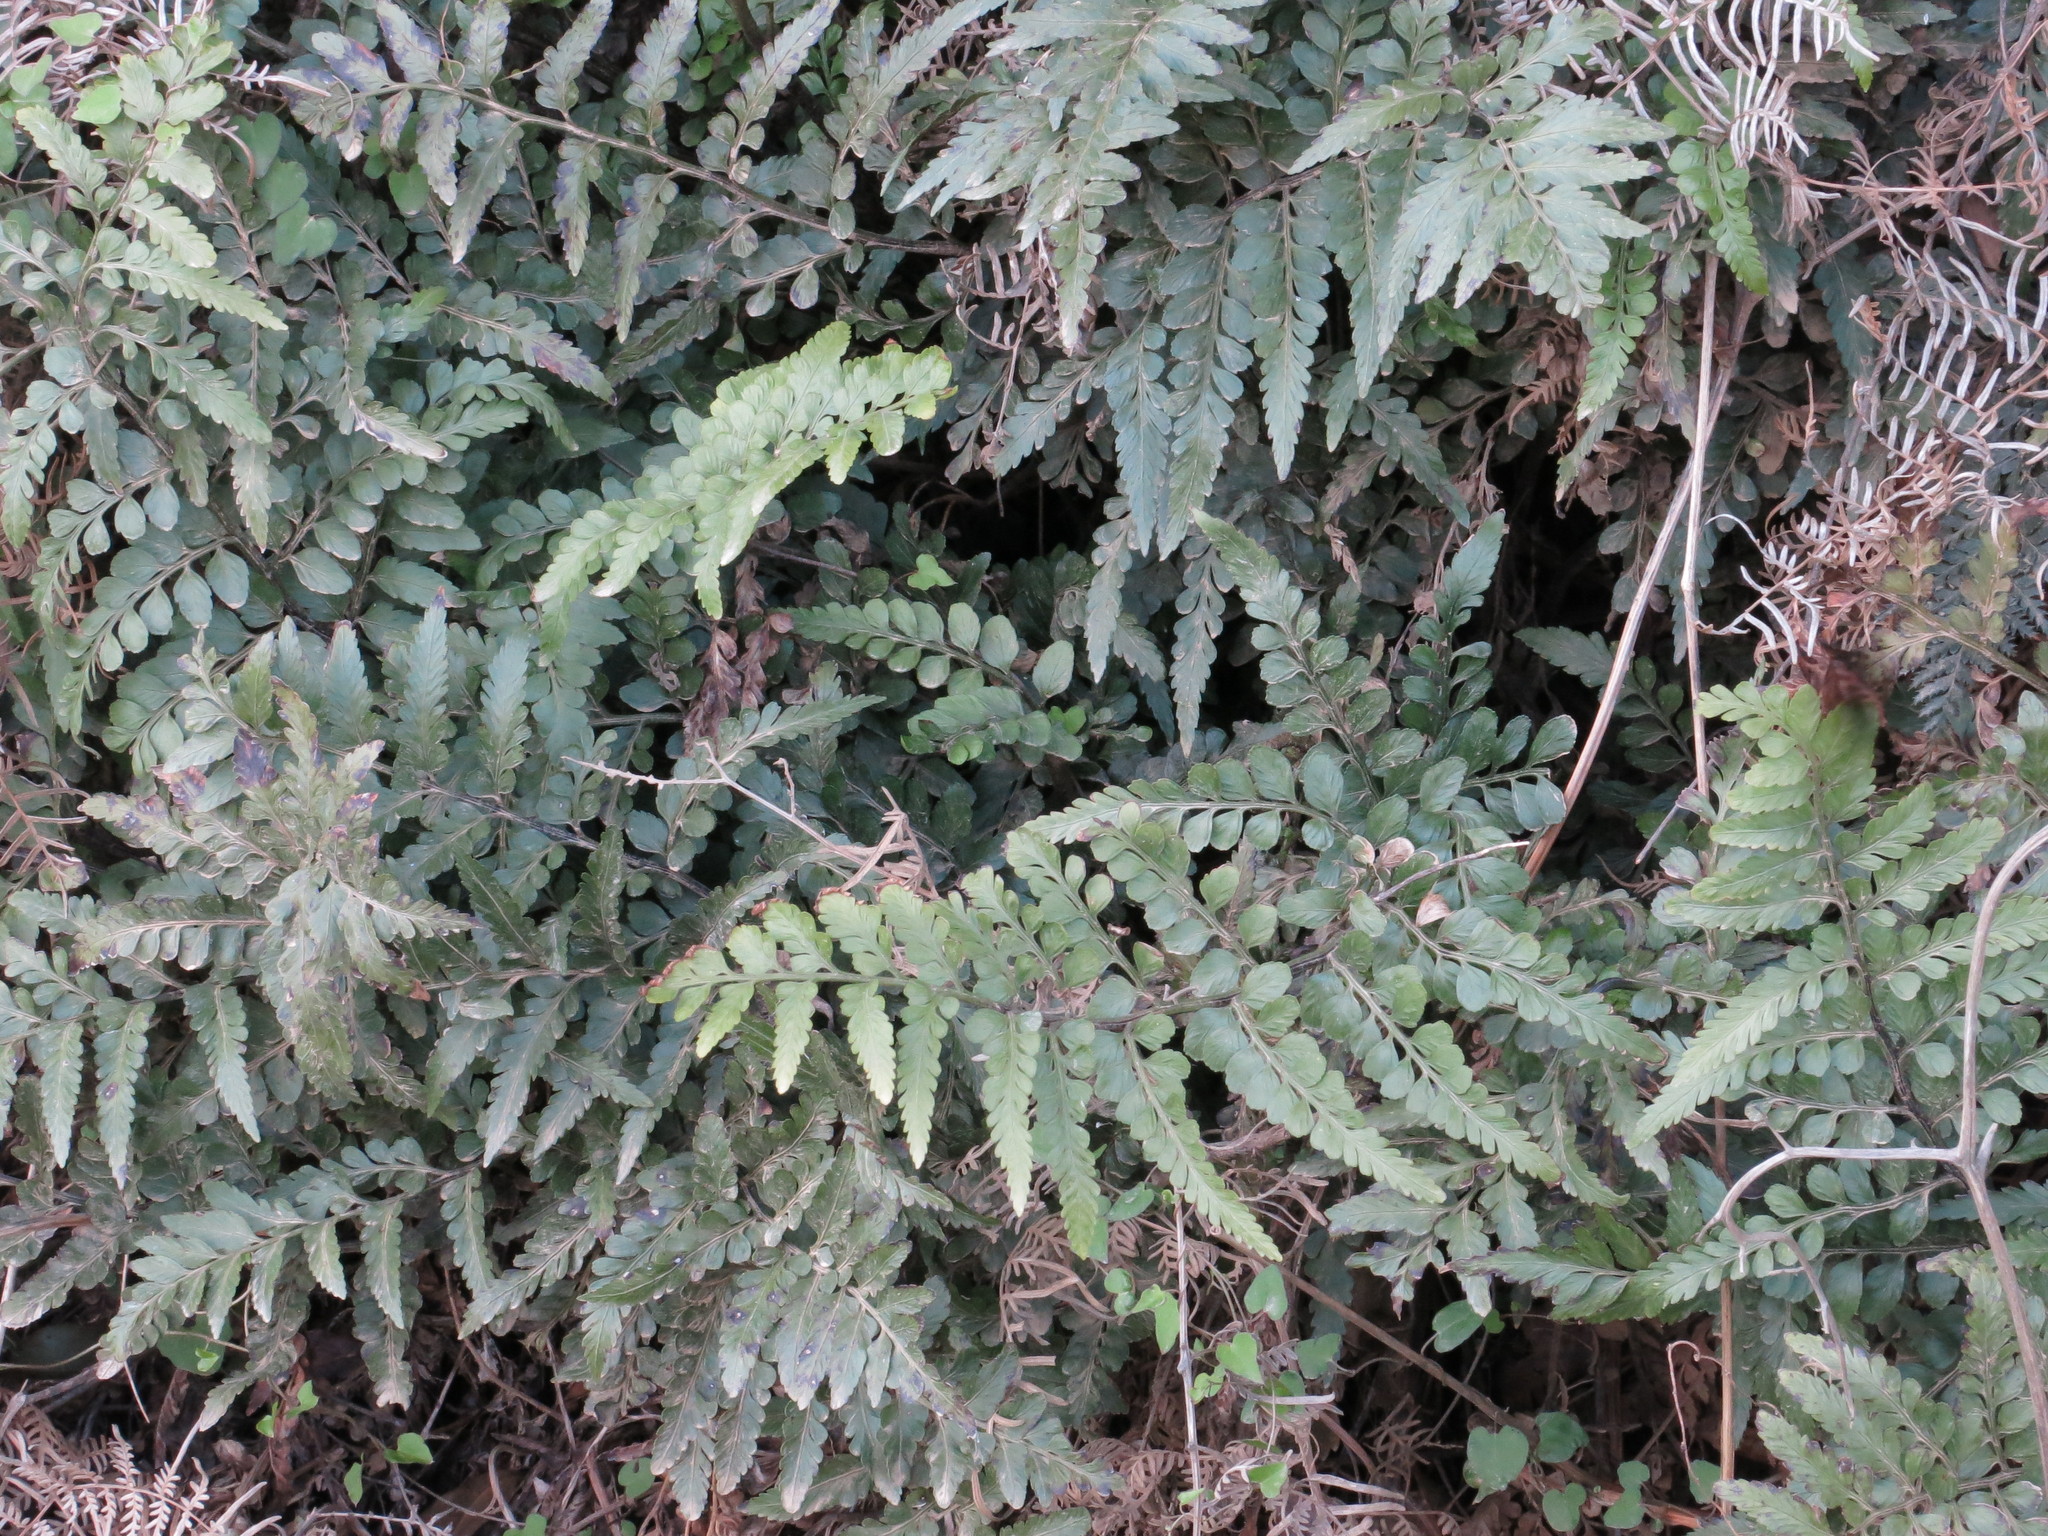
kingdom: Plantae
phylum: Tracheophyta
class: Polypodiopsida
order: Polypodiales
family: Aspleniaceae
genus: Asplenium
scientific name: Asplenium lyallii
